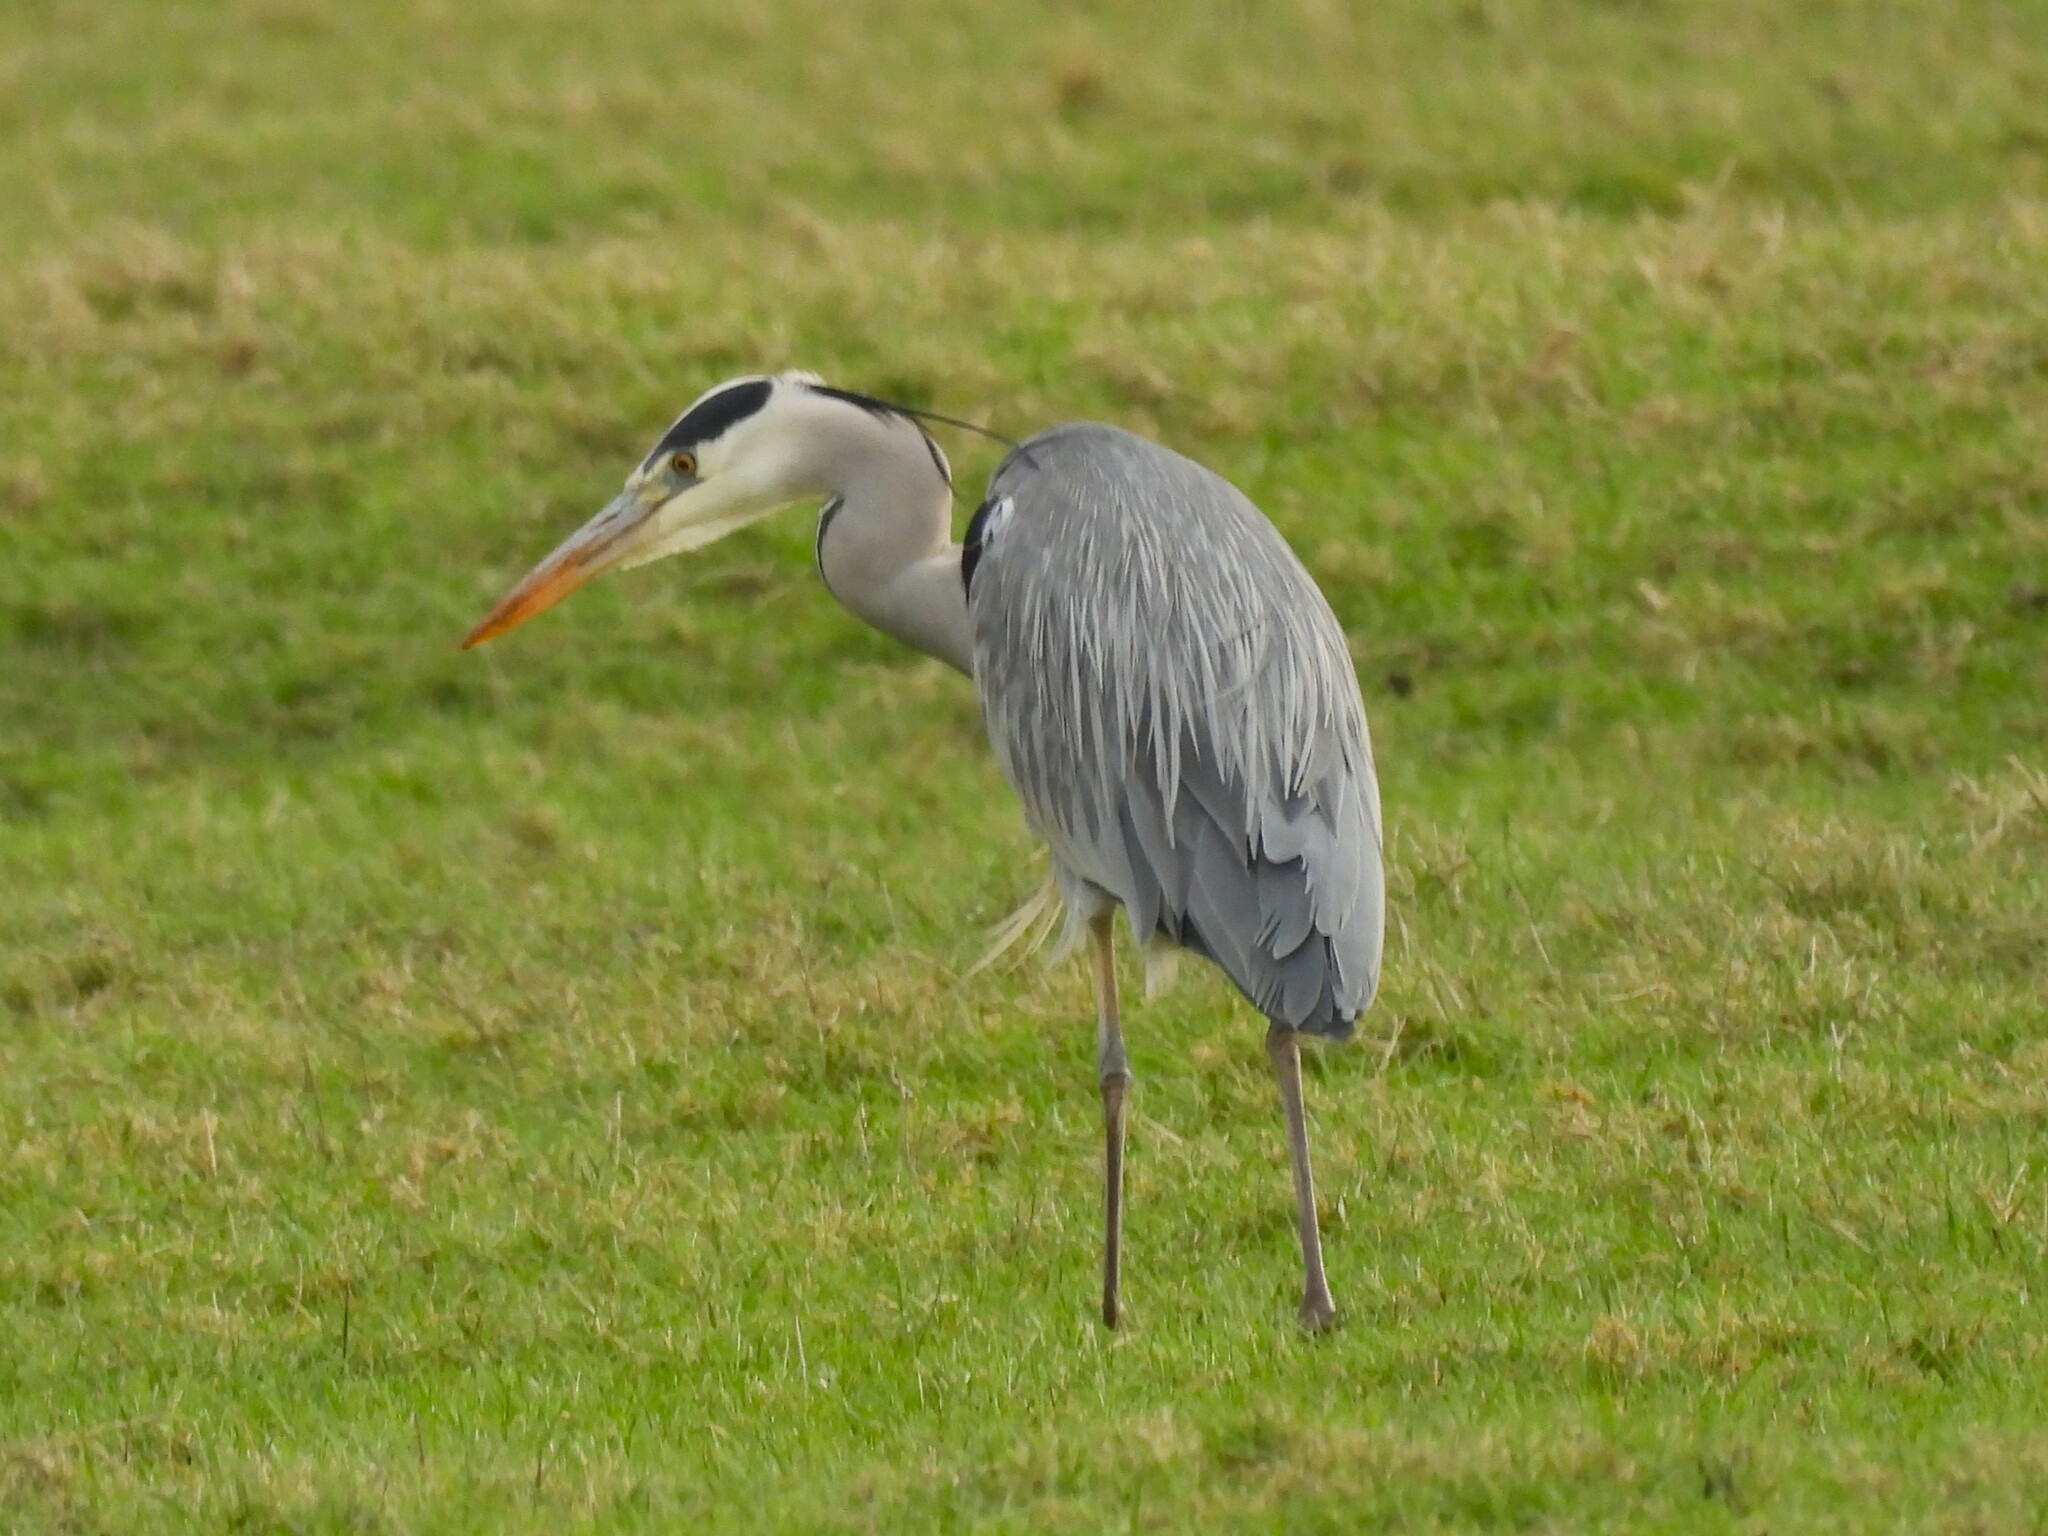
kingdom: Animalia
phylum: Chordata
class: Aves
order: Pelecaniformes
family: Ardeidae
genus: Ardea
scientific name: Ardea cinerea
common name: Grey heron
